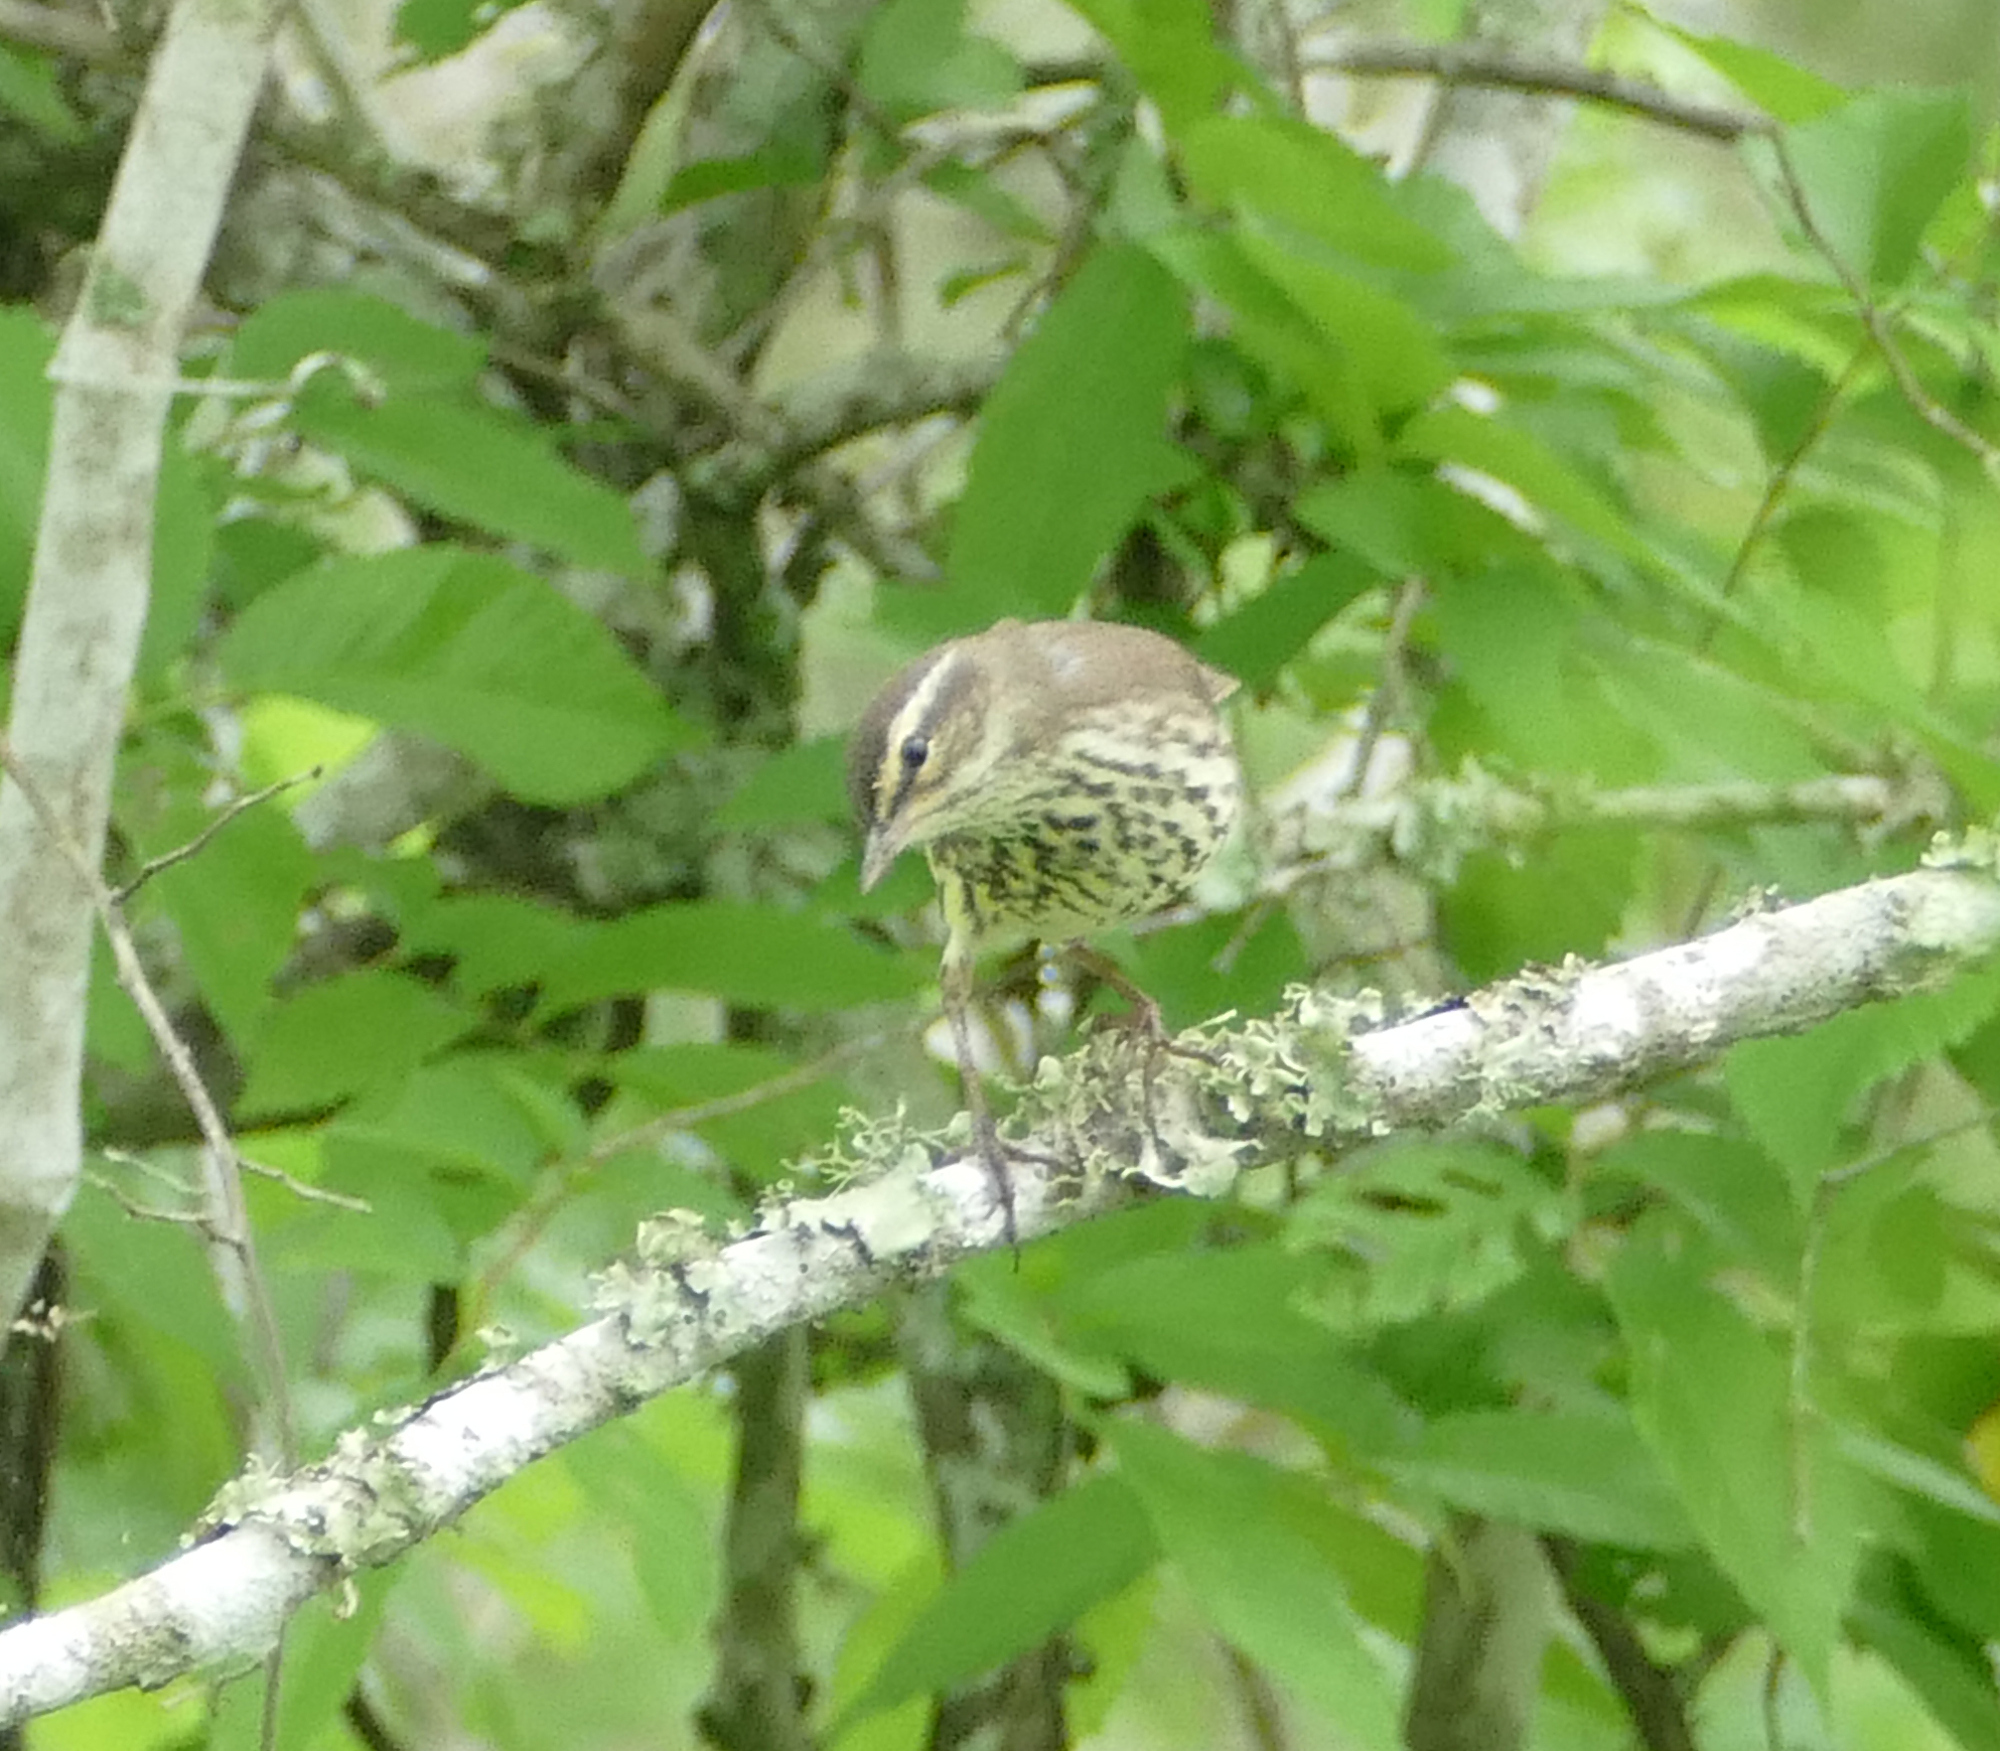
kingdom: Animalia
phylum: Chordata
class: Aves
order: Passeriformes
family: Parulidae
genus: Parkesia
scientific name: Parkesia noveboracensis
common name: Northern waterthrush
